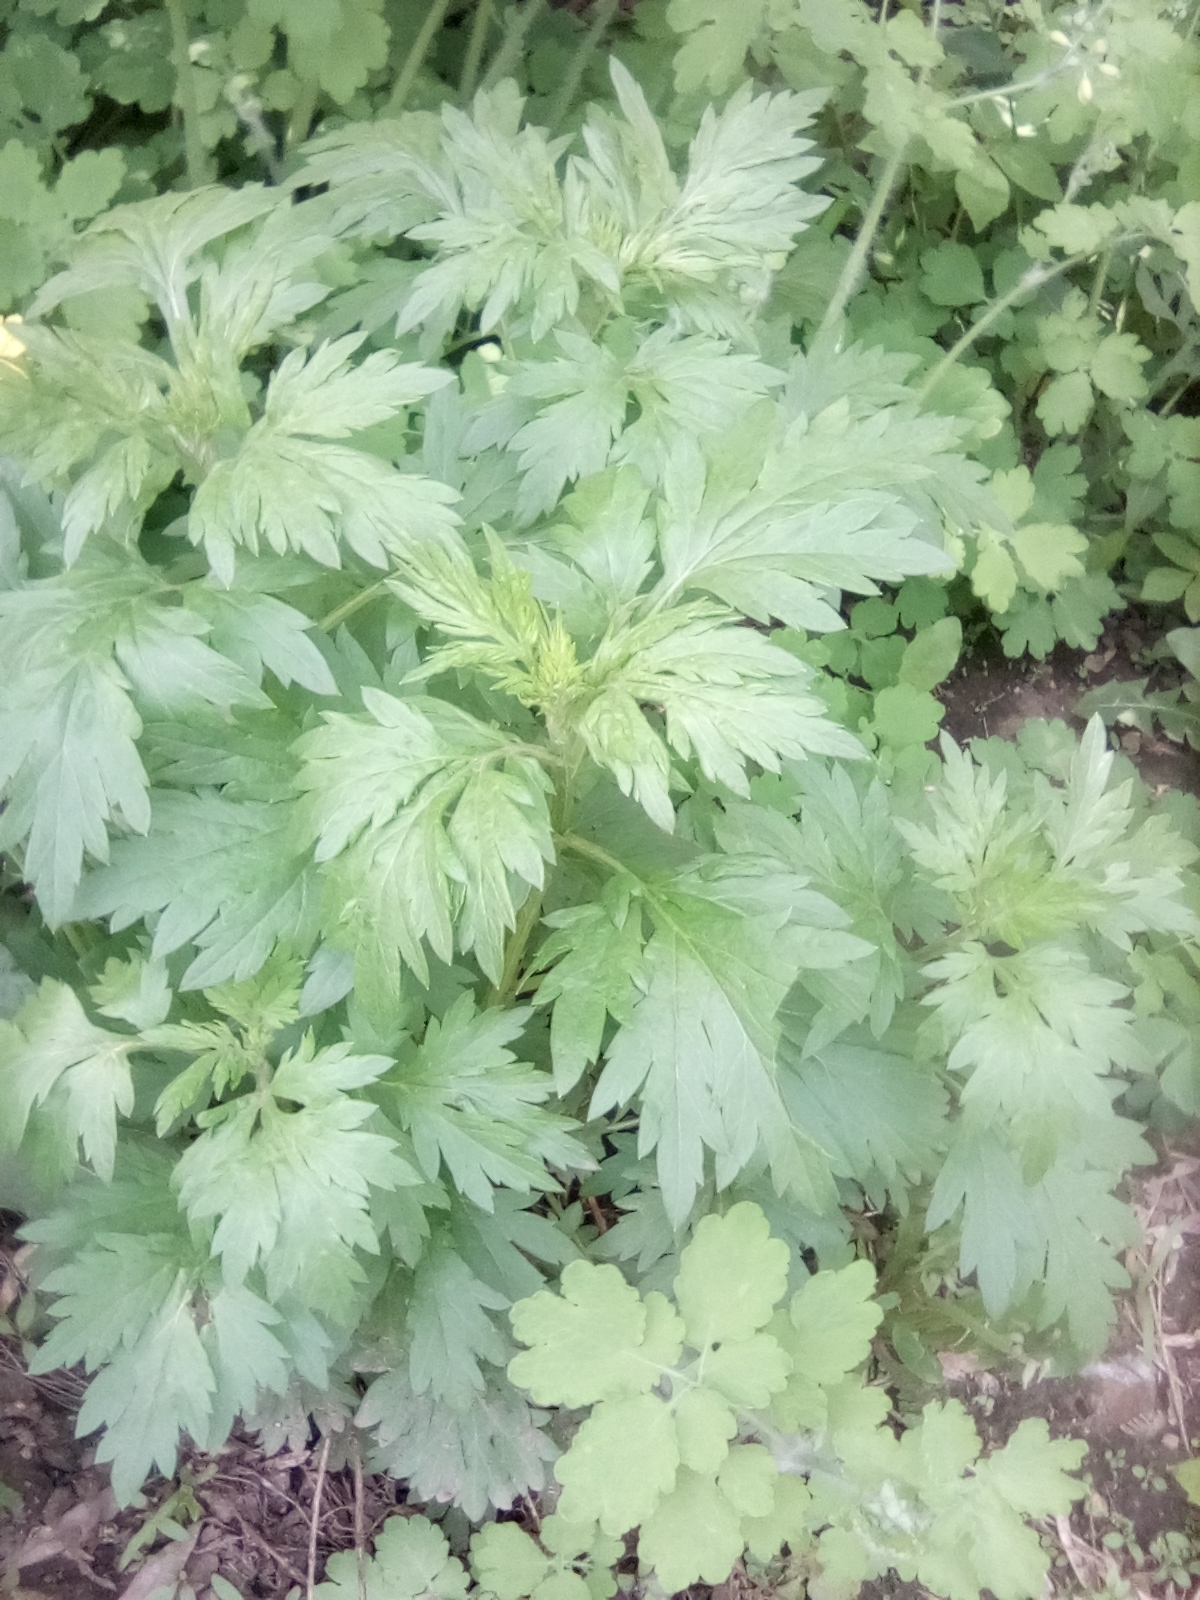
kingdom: Plantae
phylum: Tracheophyta
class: Magnoliopsida
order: Asterales
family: Asteraceae
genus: Artemisia
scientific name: Artemisia vulgaris
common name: Mugwort
